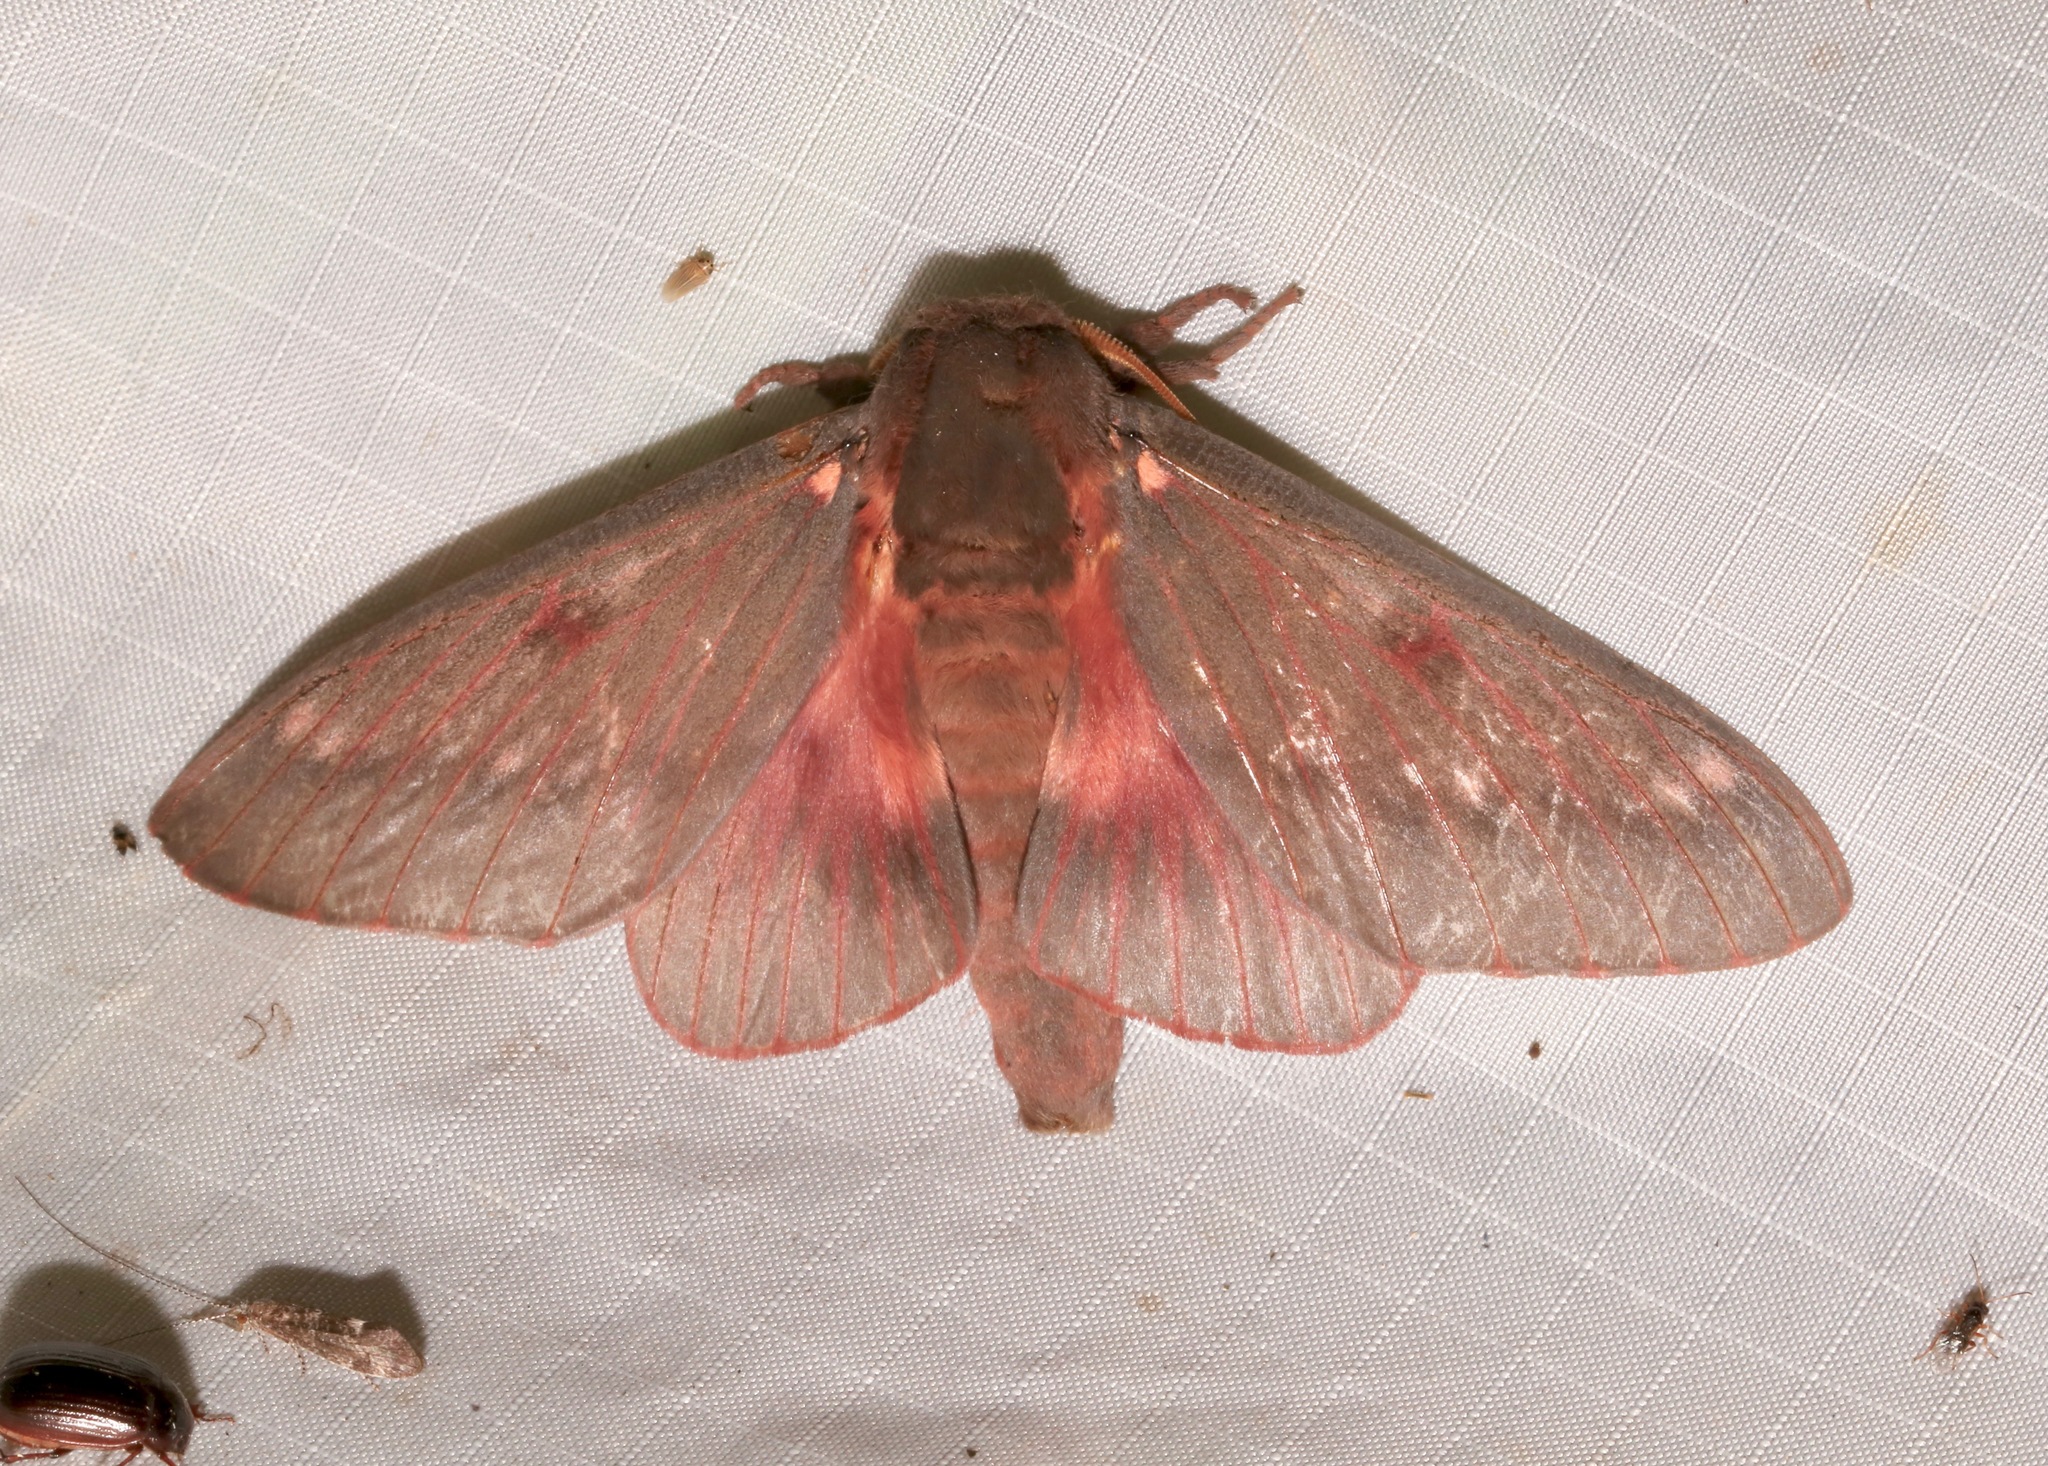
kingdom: Animalia
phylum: Arthropoda
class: Insecta
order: Lepidoptera
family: Saturniidae
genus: Citheronia
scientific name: Citheronia sepulcralis
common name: Pine-devil moth
